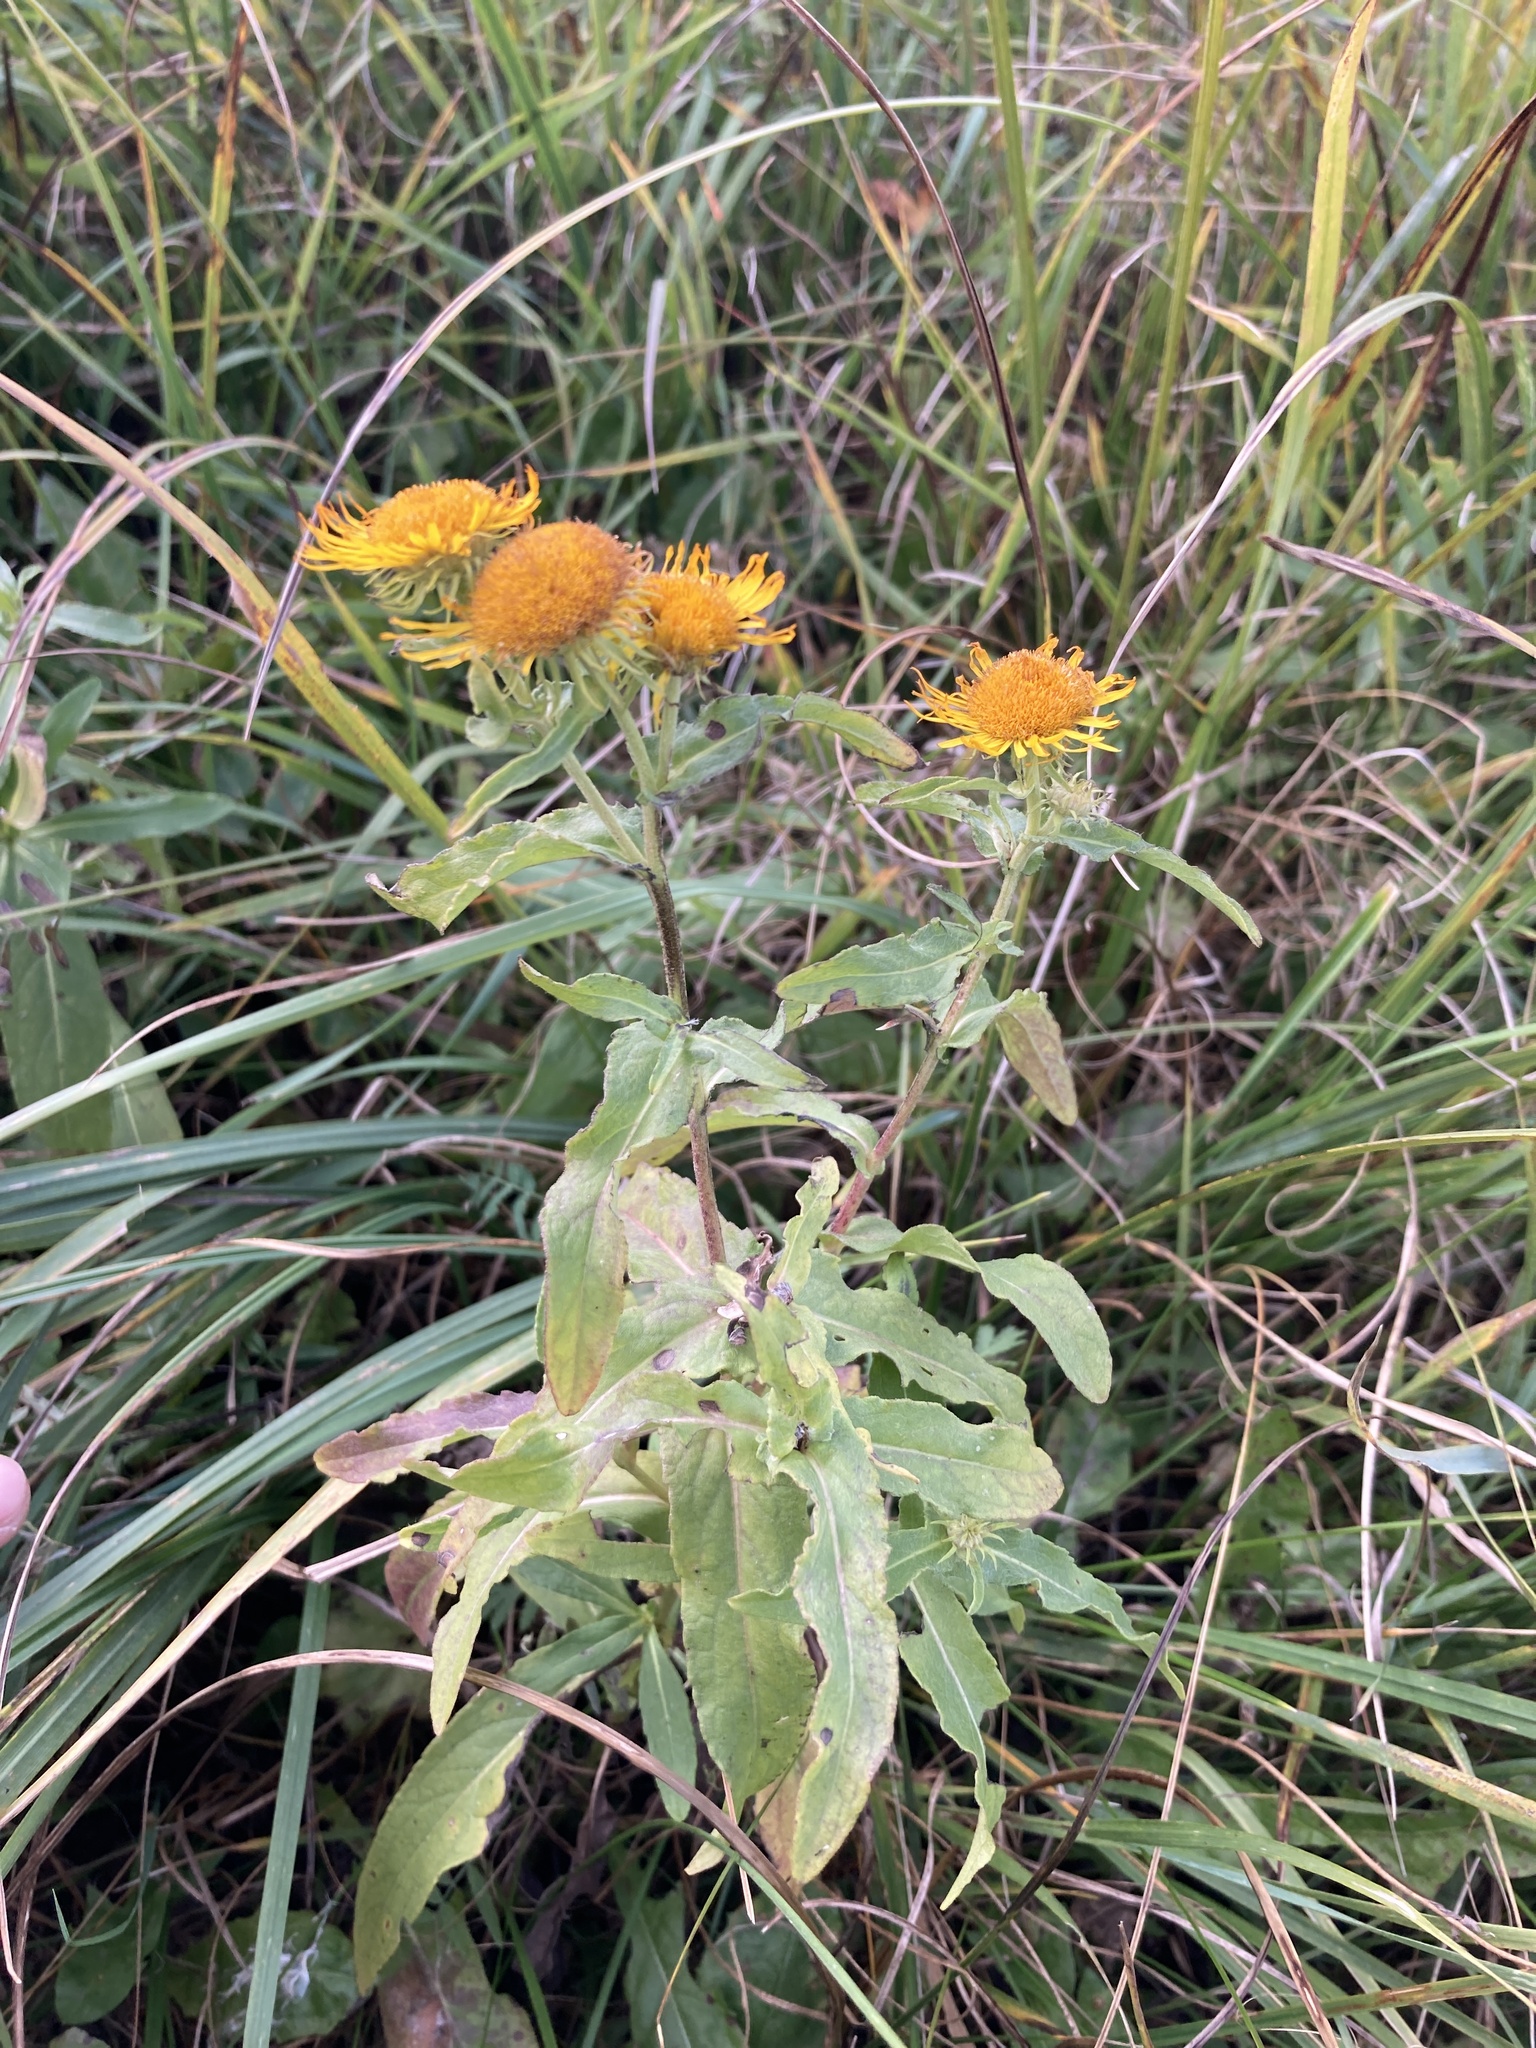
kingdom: Plantae
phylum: Tracheophyta
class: Magnoliopsida
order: Asterales
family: Asteraceae
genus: Pentanema
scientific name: Pentanema britannicum
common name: British elecampane
